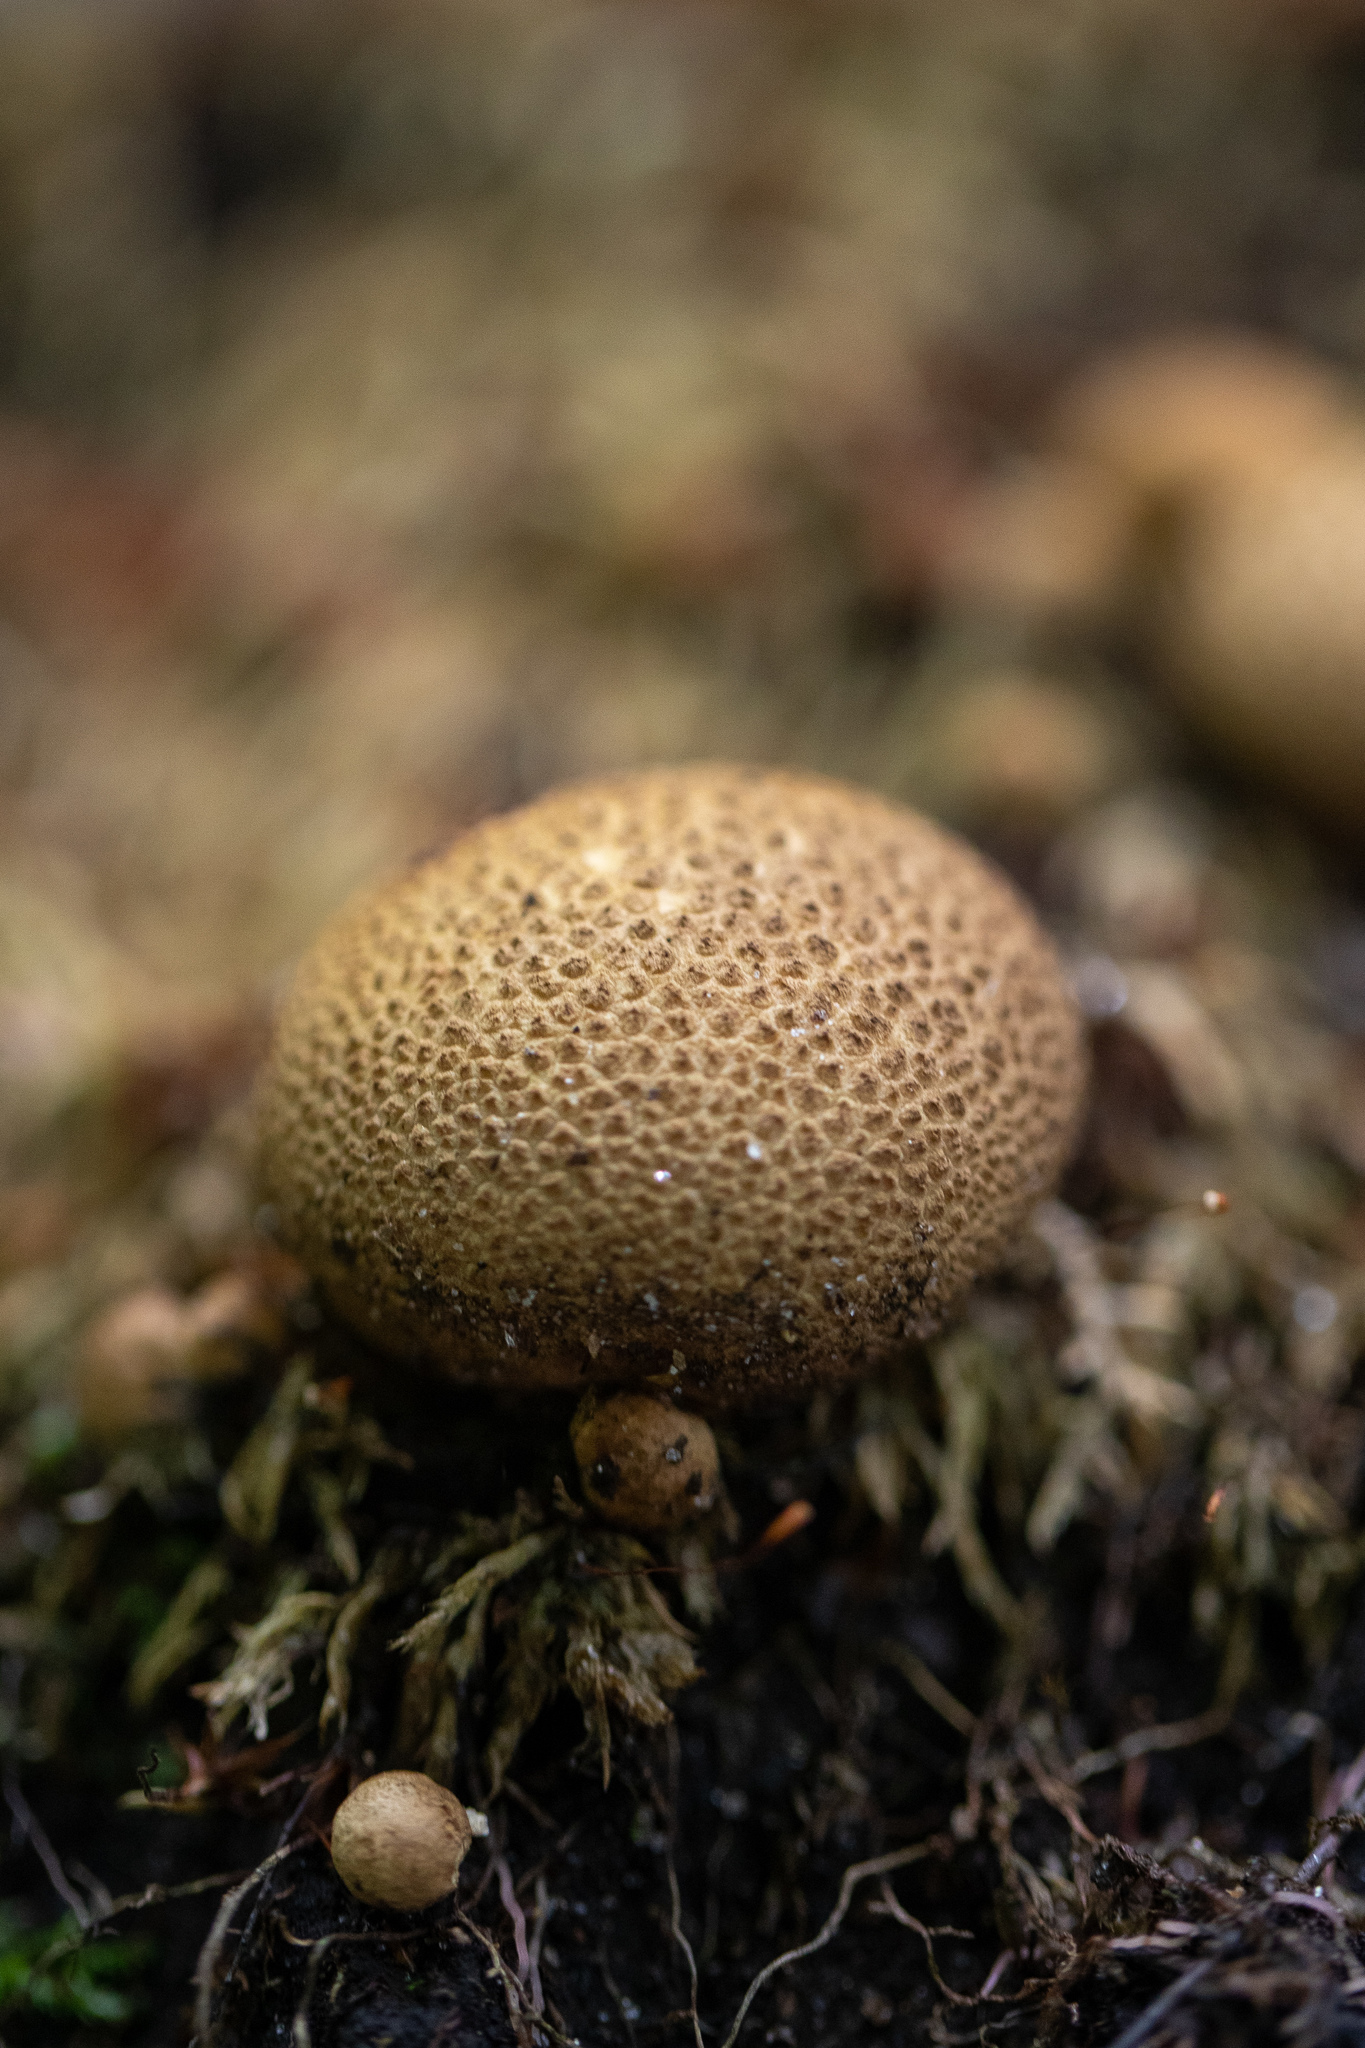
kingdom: Fungi
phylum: Basidiomycota
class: Agaricomycetes
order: Boletales
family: Sclerodermataceae
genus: Scleroderma
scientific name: Scleroderma citrinum
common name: Common earthball
